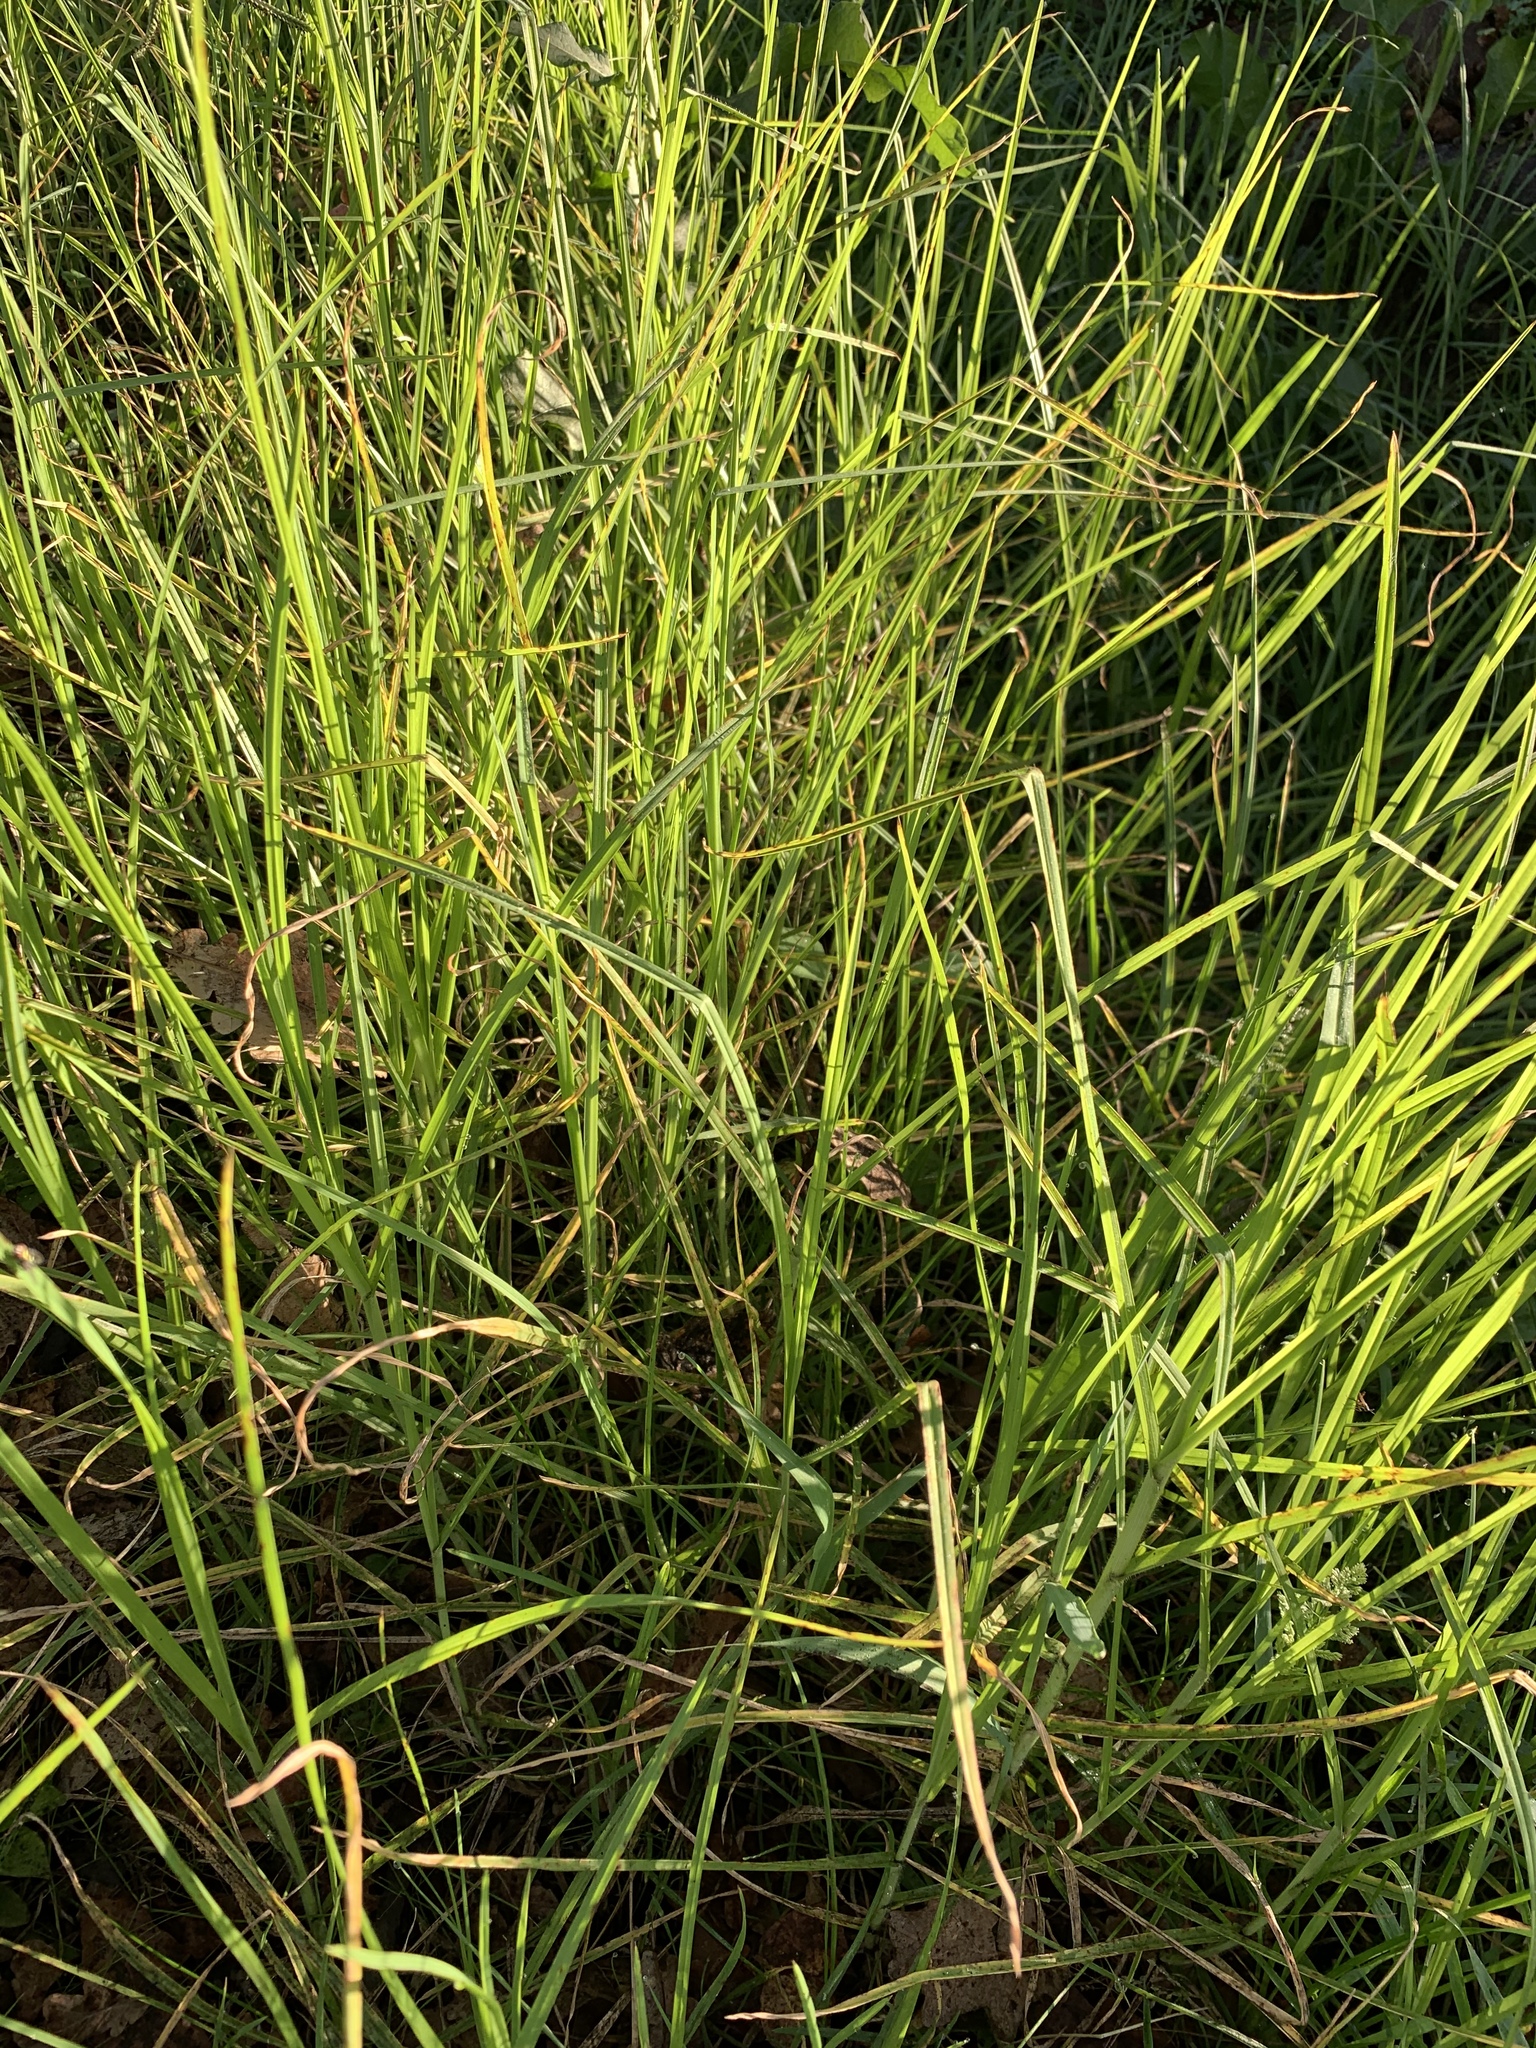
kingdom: Plantae
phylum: Tracheophyta
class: Liliopsida
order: Poales
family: Poaceae
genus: Cenchrus
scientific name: Cenchrus clandestinus
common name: Kikuyugrass
